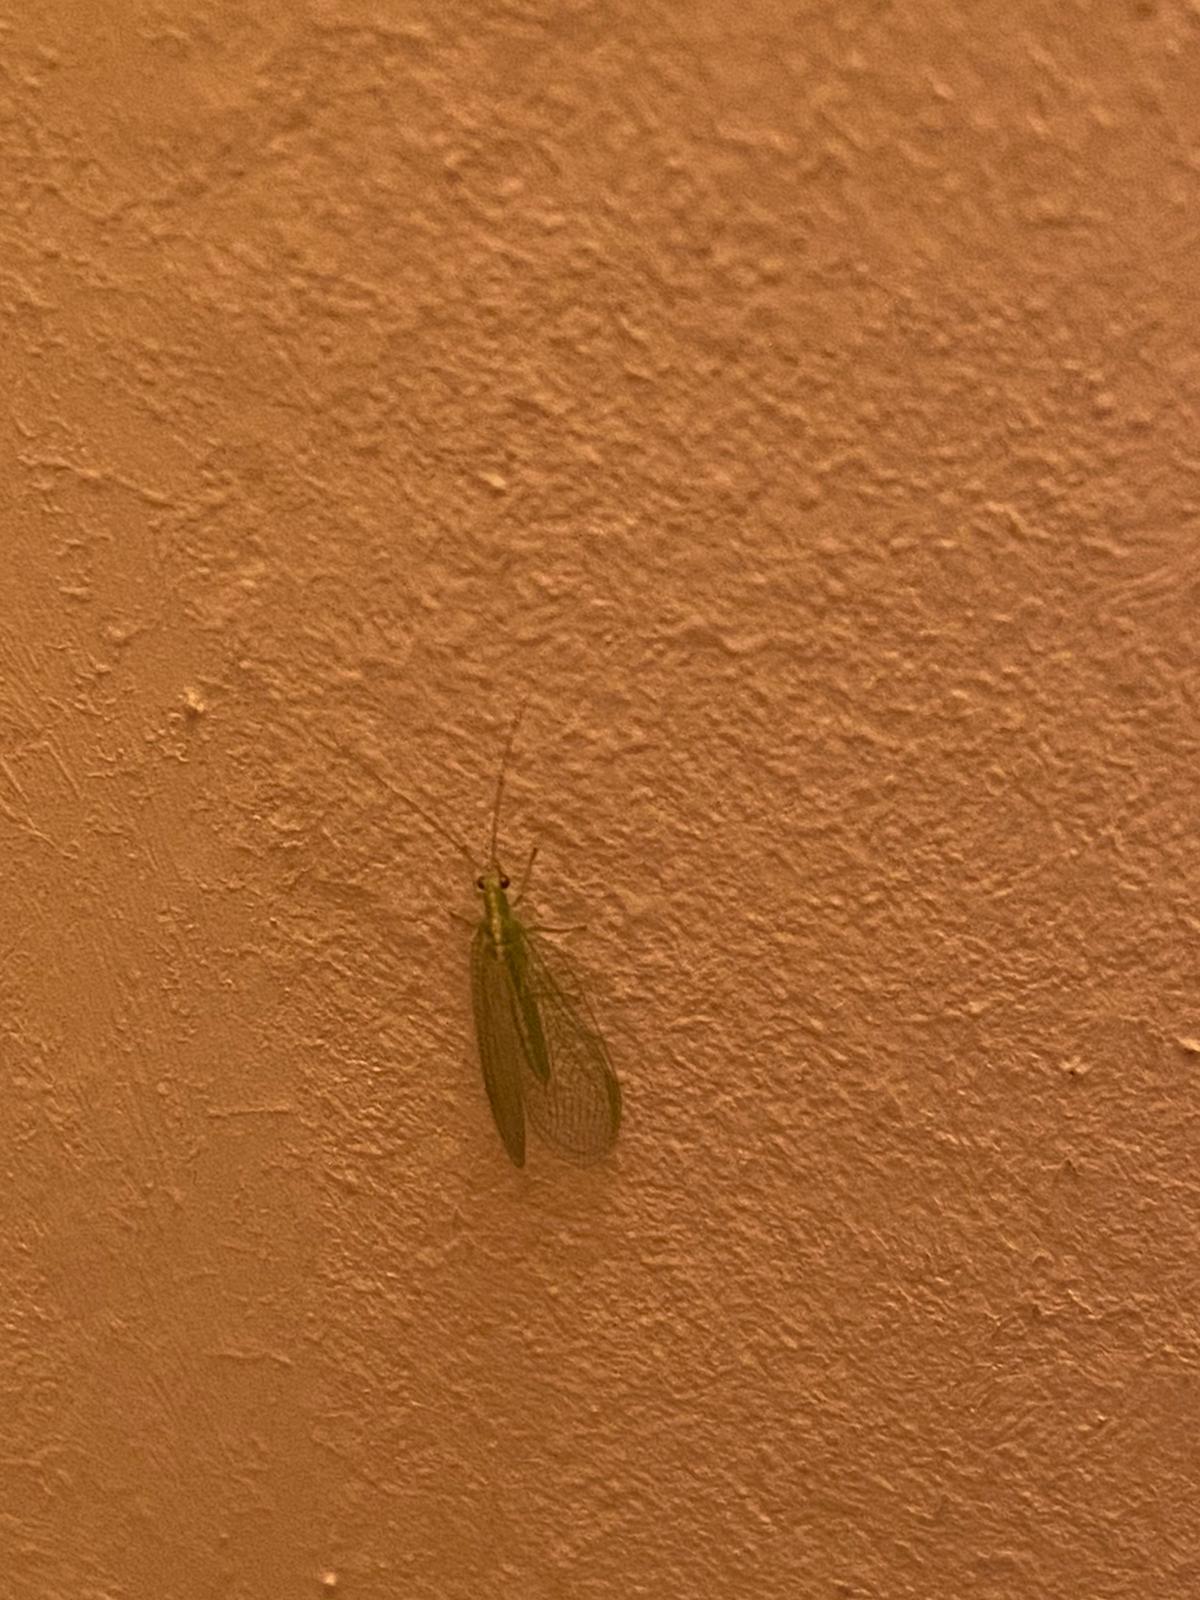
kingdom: Animalia
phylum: Arthropoda
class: Insecta
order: Neuroptera
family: Chrysopidae
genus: Chrysoperla
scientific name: Chrysoperla
